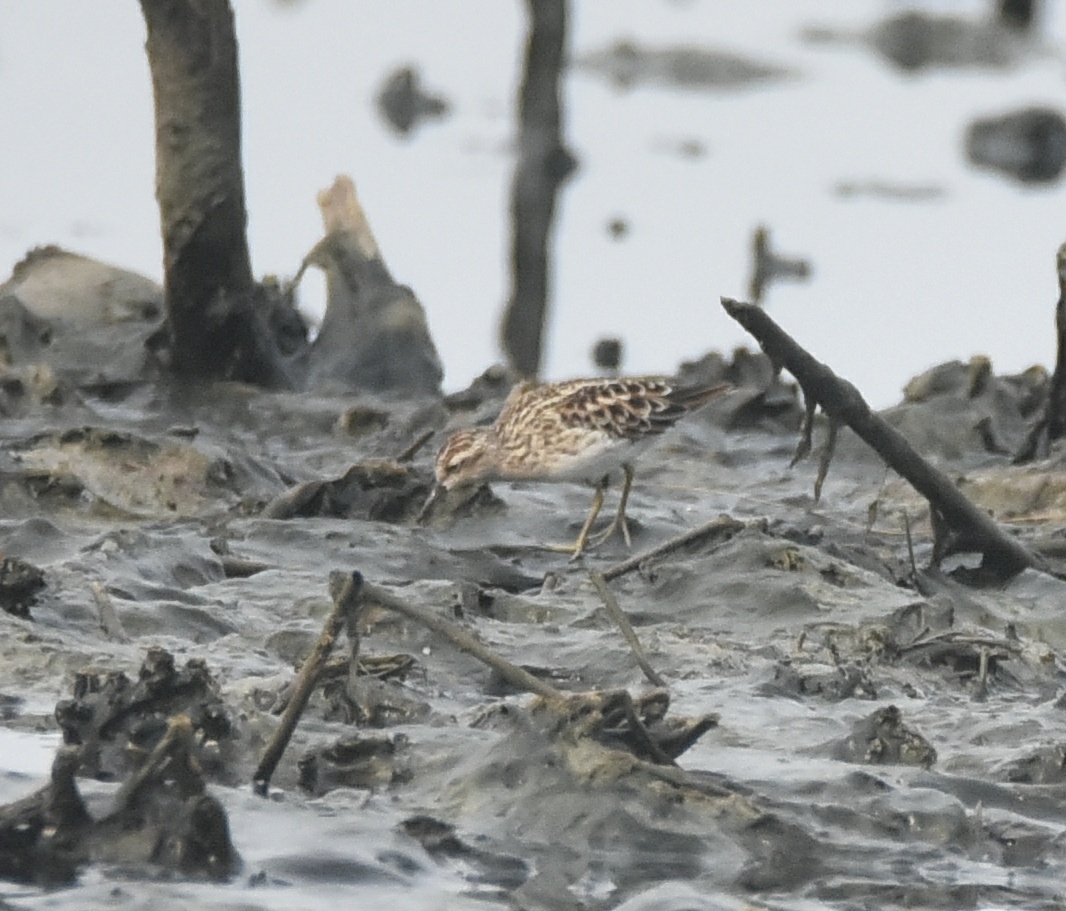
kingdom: Animalia
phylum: Chordata
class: Aves
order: Charadriiformes
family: Scolopacidae
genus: Calidris
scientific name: Calidris subminuta
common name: Long-toed stint
